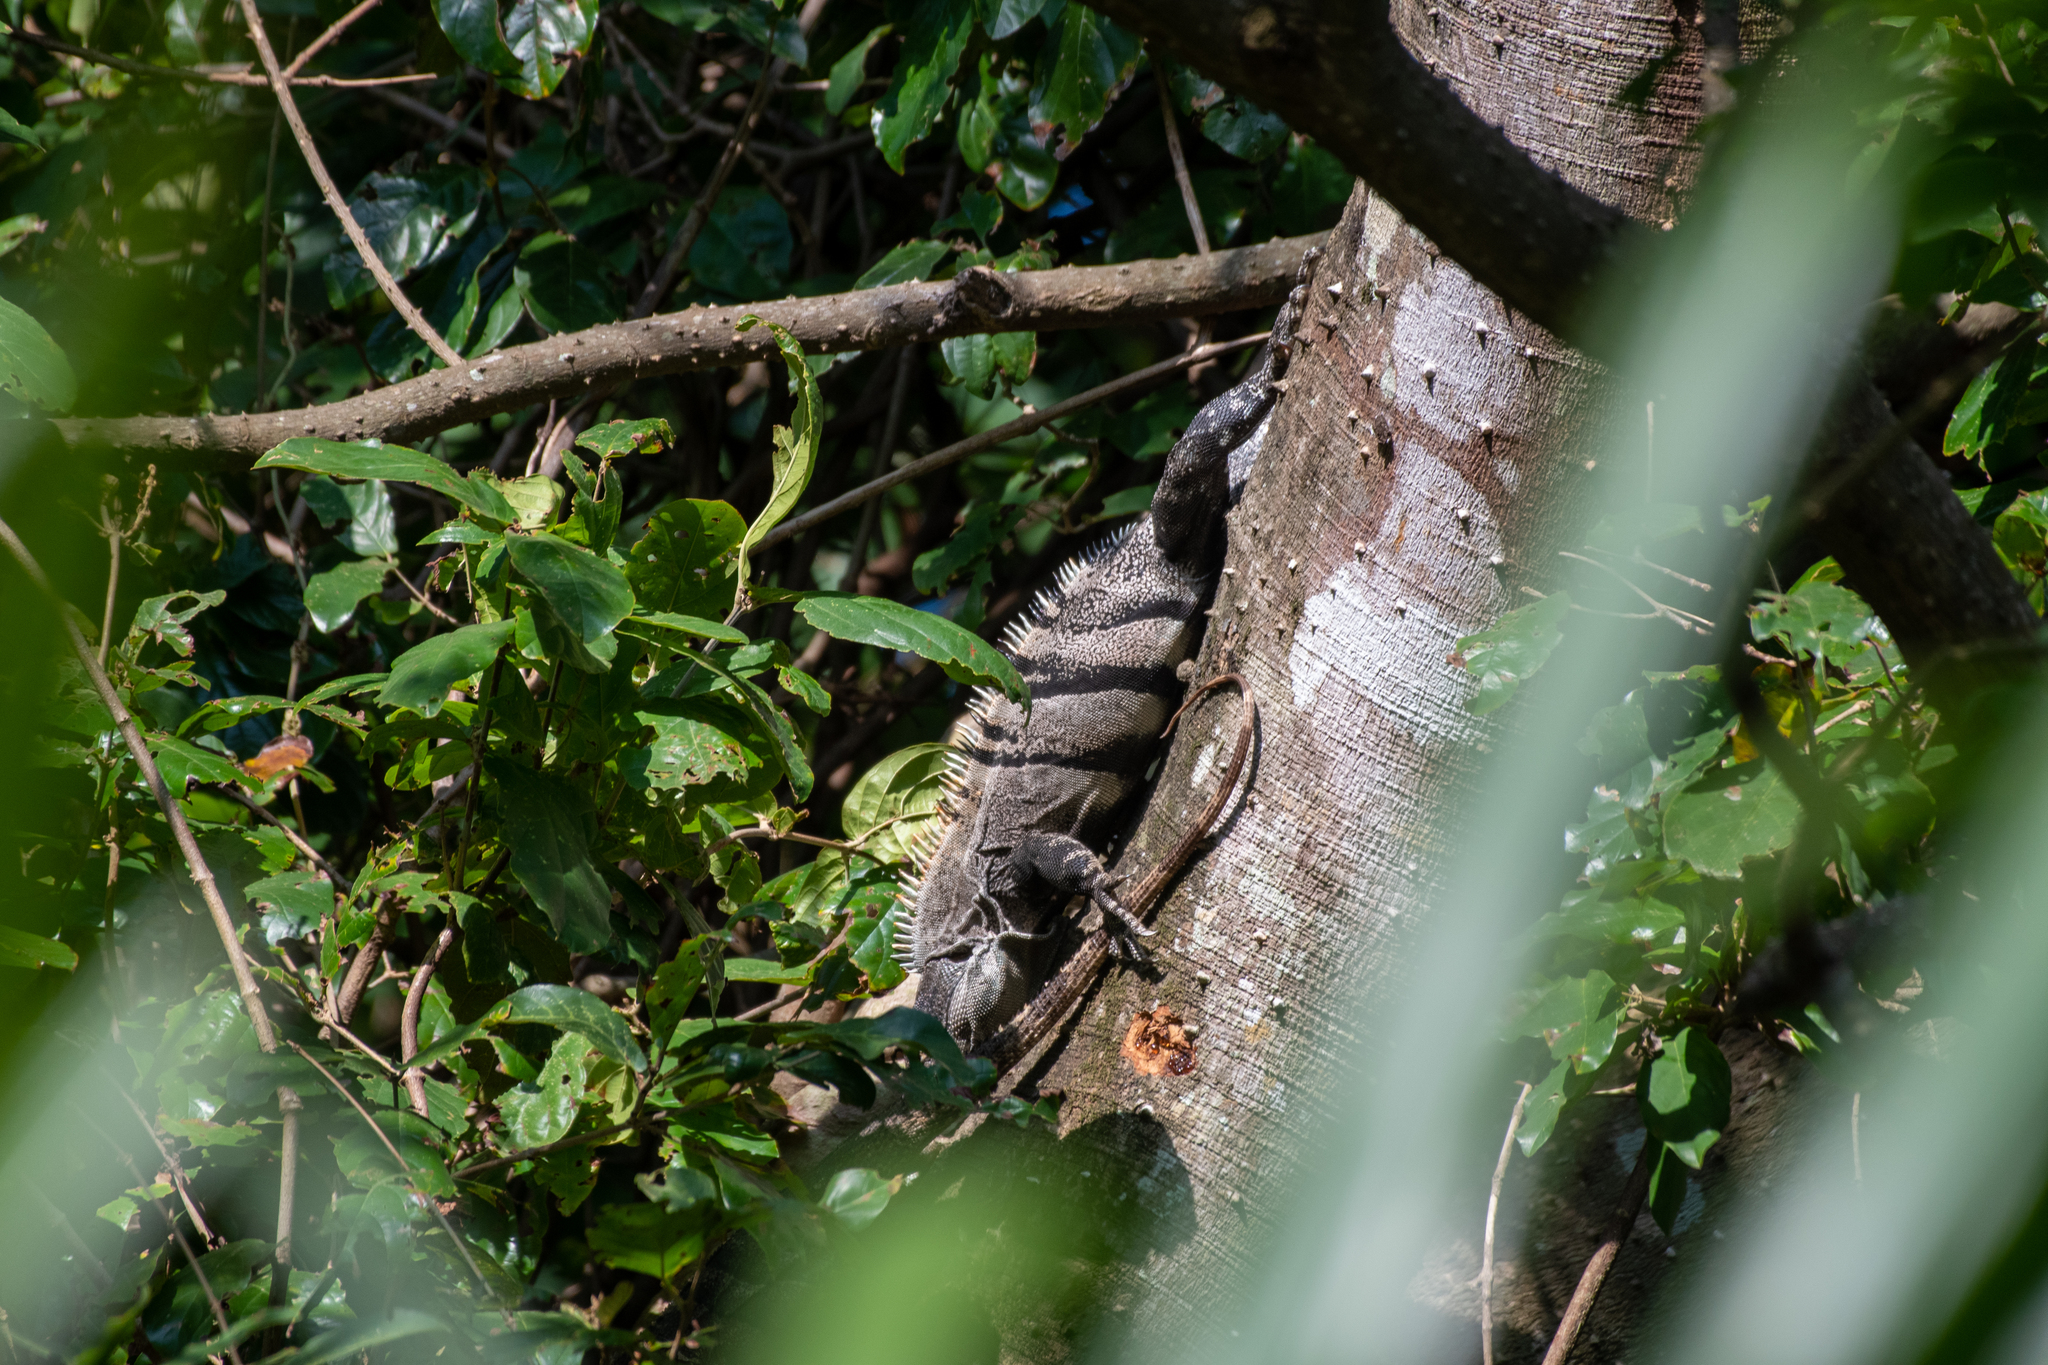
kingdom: Animalia
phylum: Chordata
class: Squamata
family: Iguanidae
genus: Ctenosaura
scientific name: Ctenosaura similis
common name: Black spiny-tailed iguana
